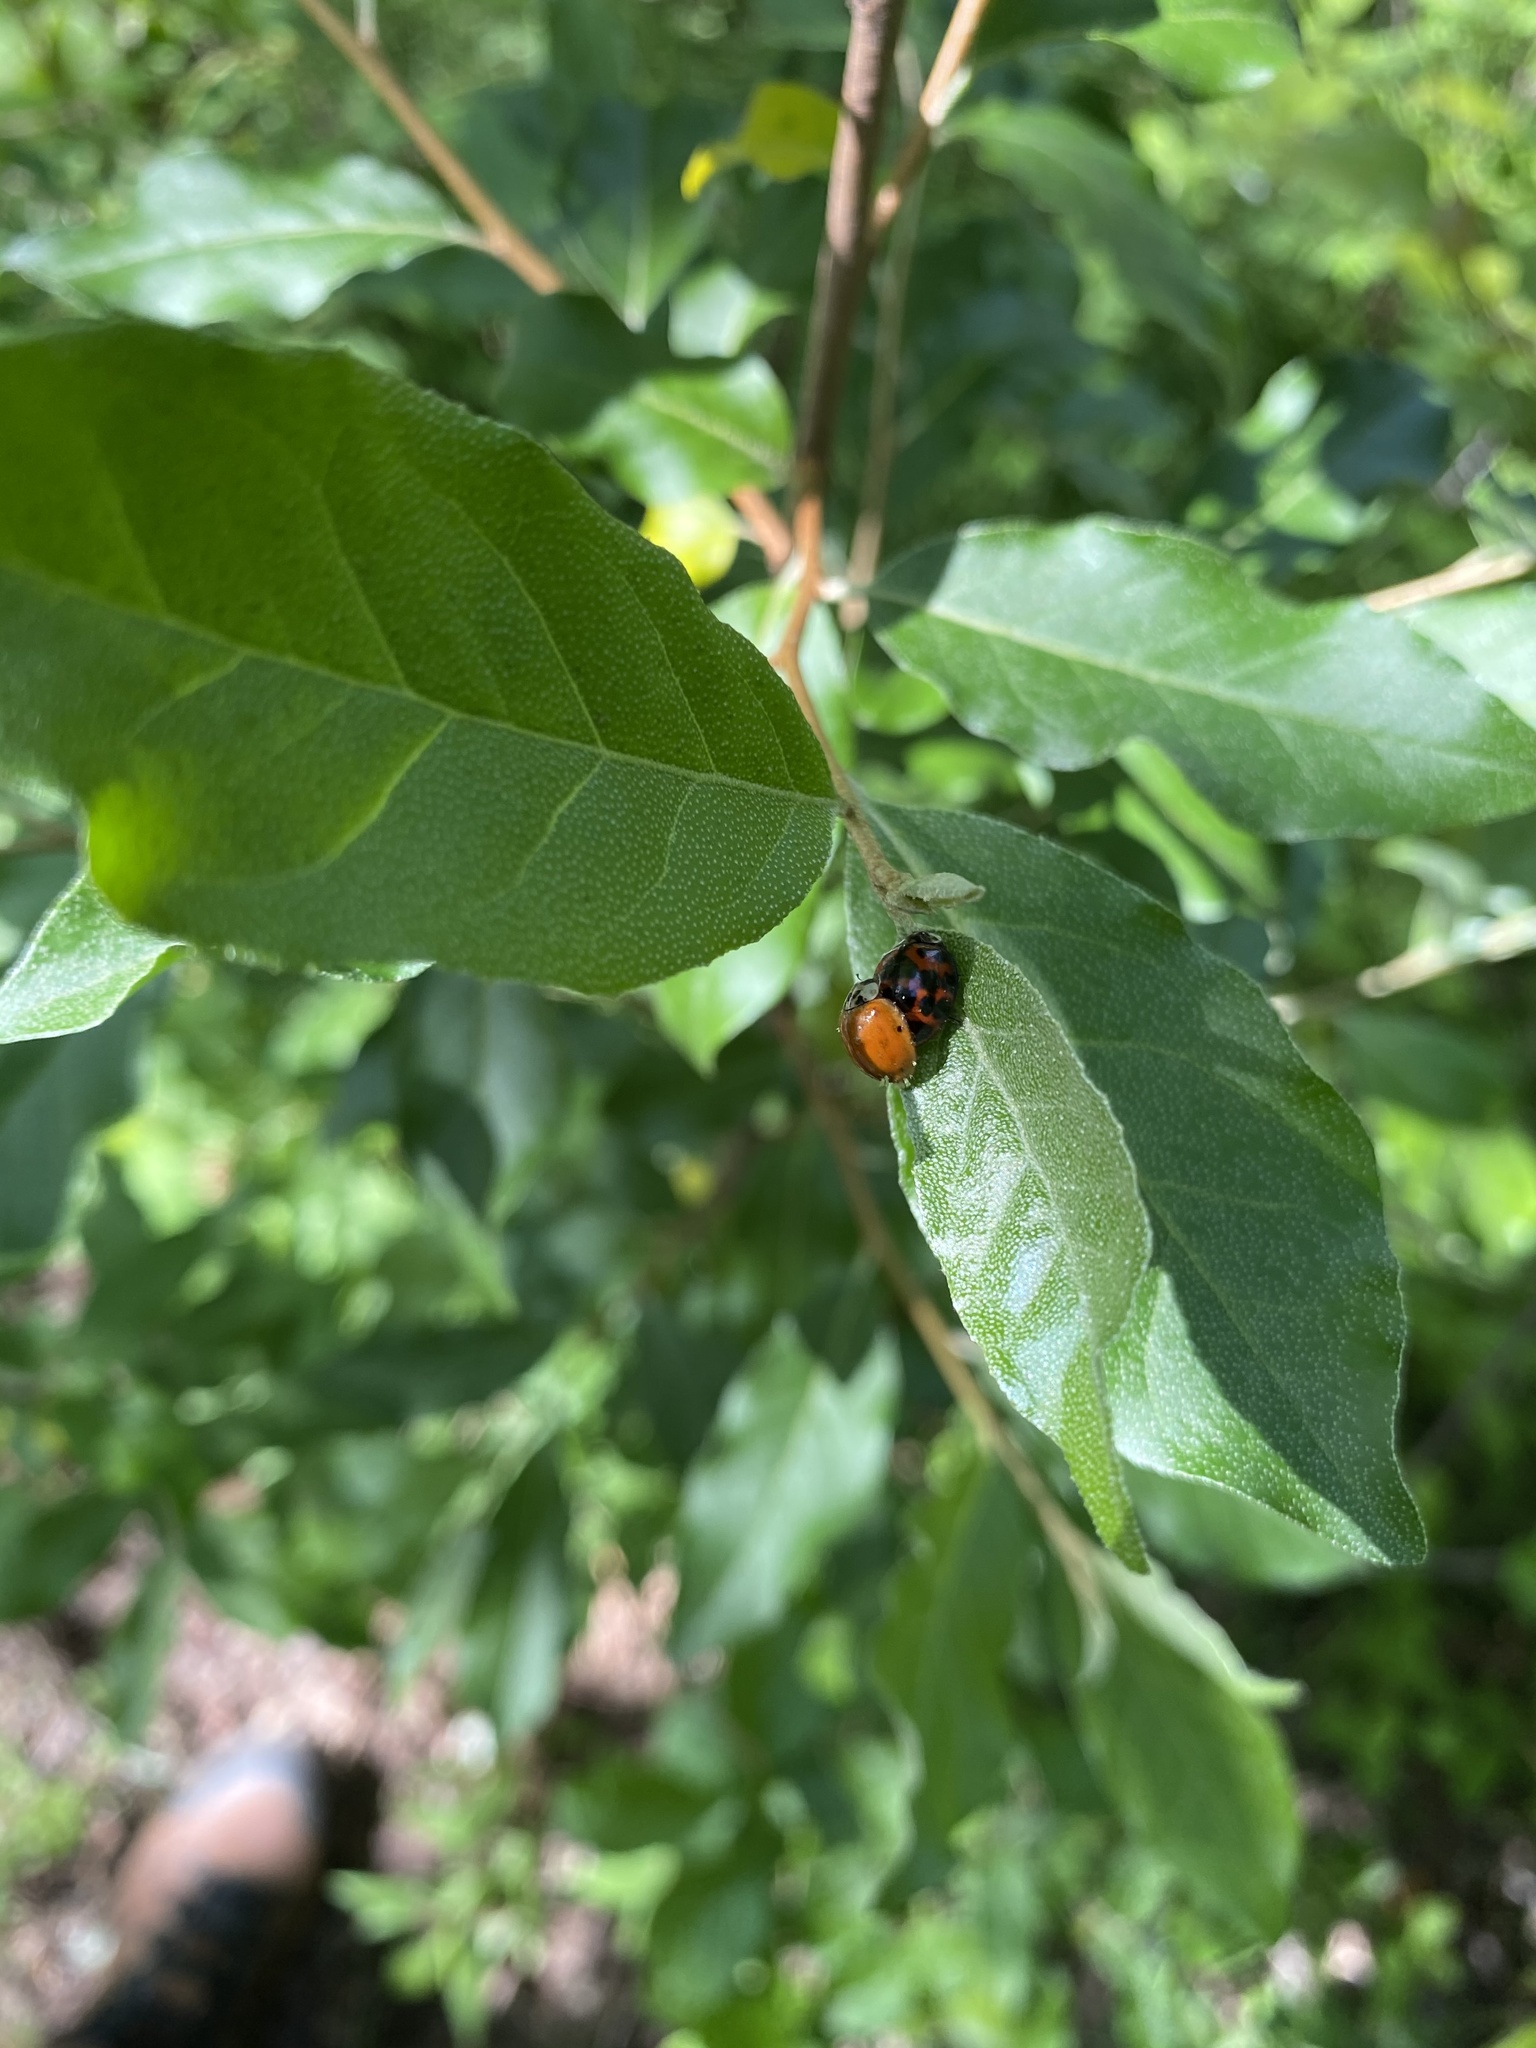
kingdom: Animalia
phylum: Arthropoda
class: Insecta
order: Coleoptera
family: Coccinellidae
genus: Harmonia
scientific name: Harmonia axyridis
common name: Harlequin ladybird
